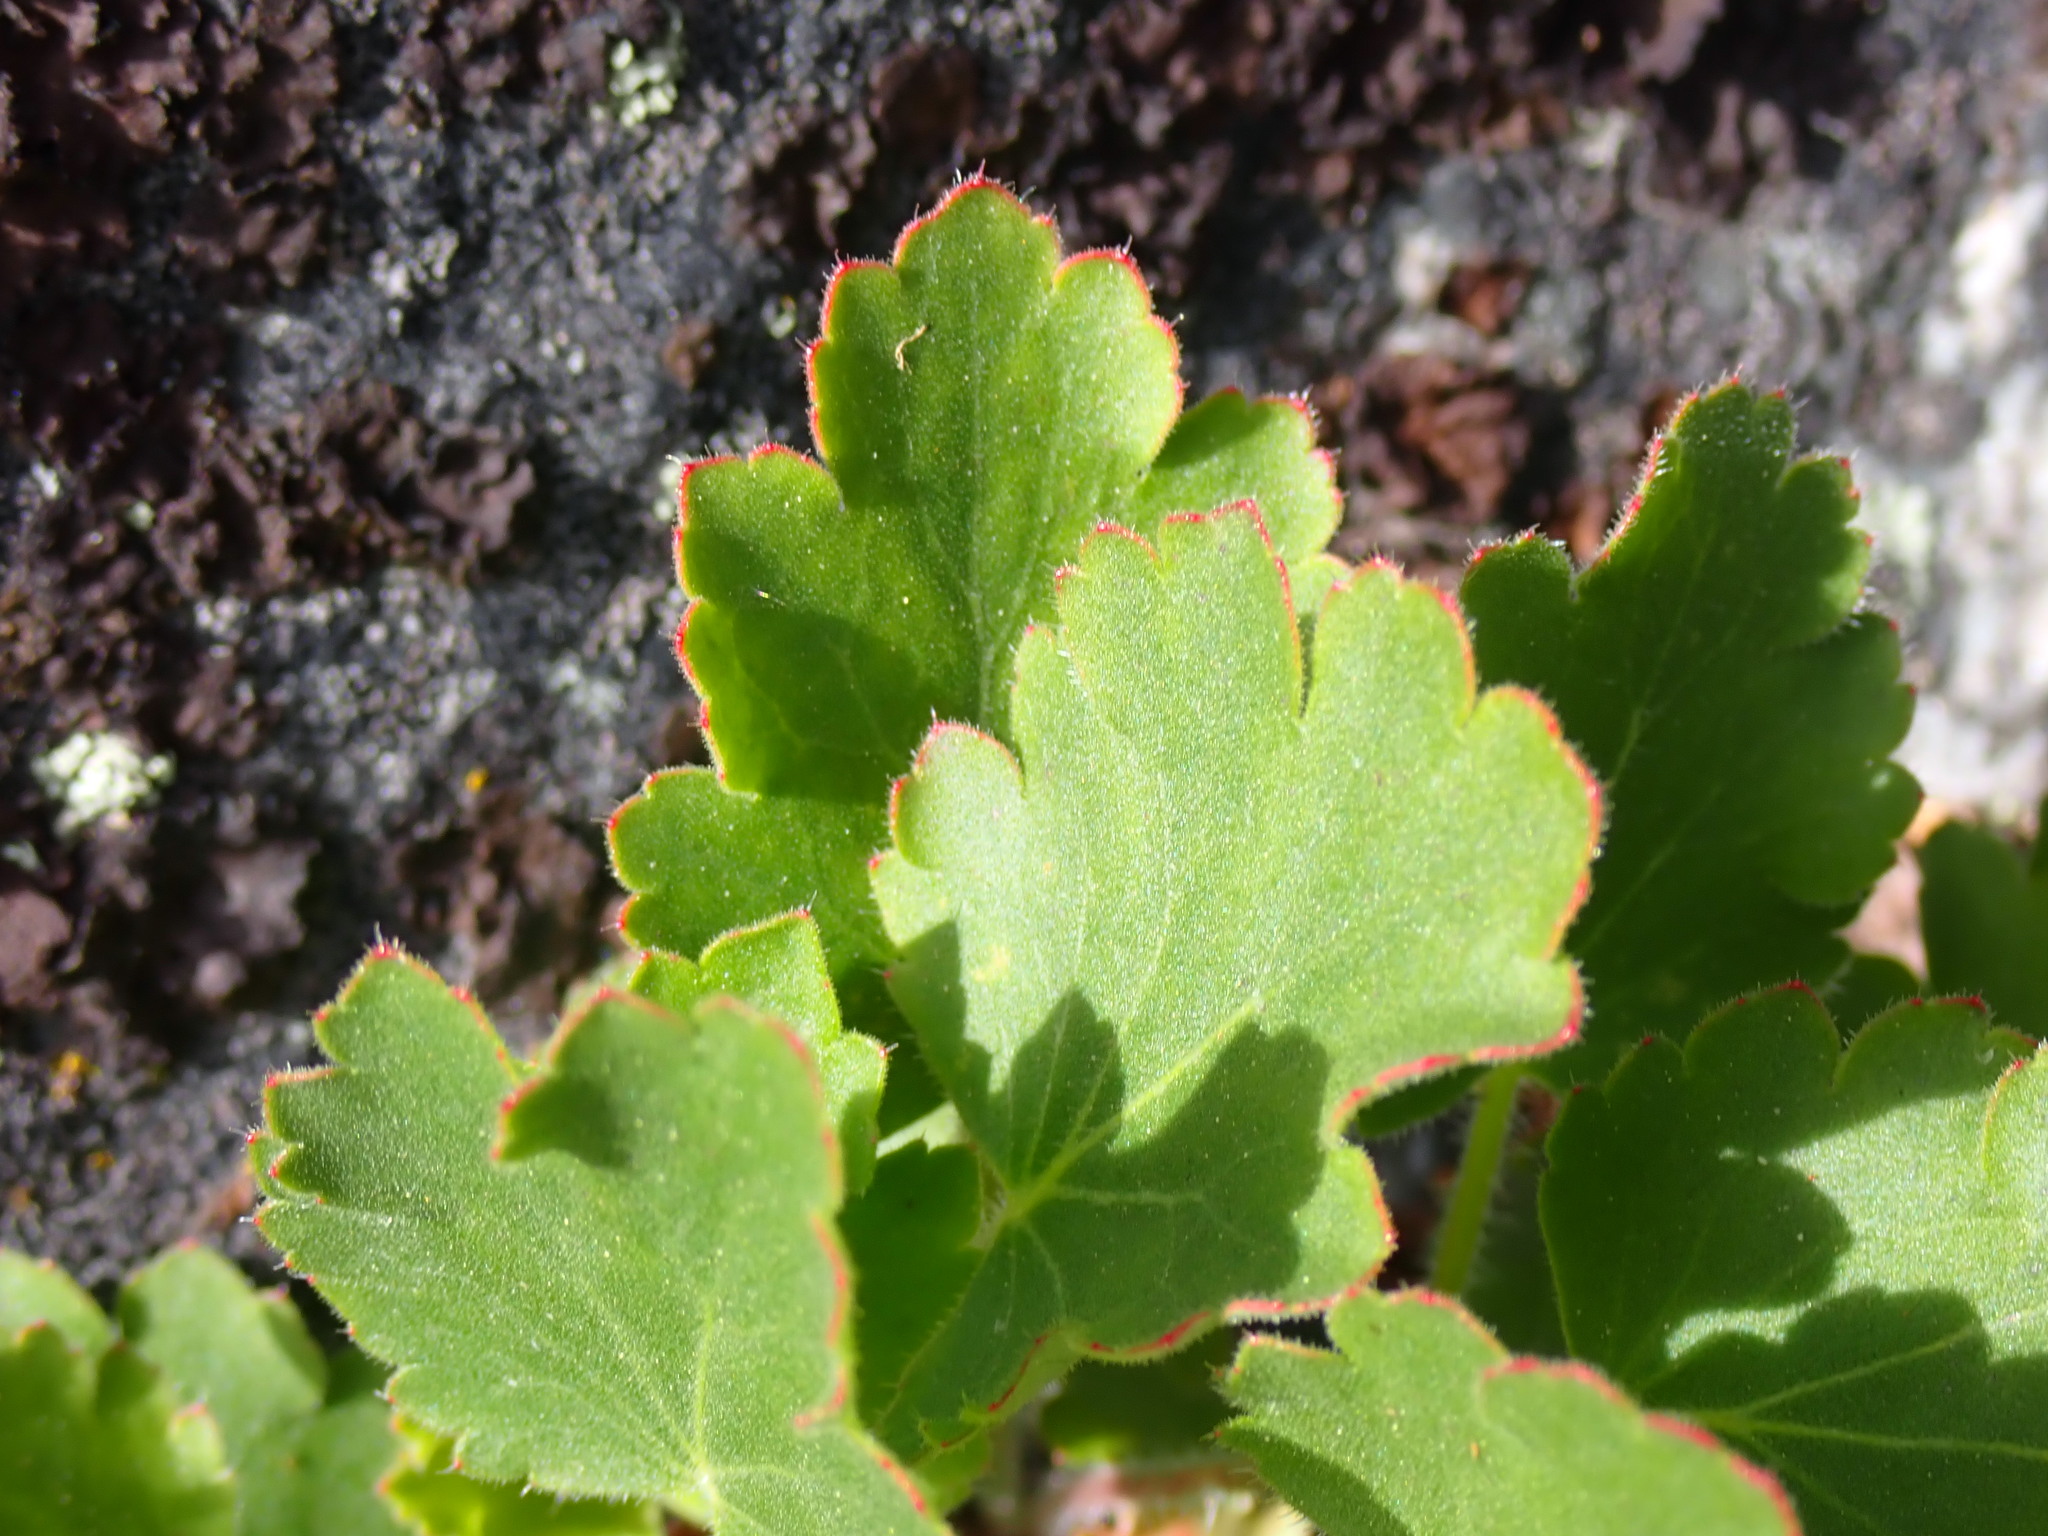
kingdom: Plantae
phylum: Tracheophyta
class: Magnoliopsida
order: Saxifragales
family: Saxifragaceae
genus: Heuchera
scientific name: Heuchera cylindrica
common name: Mat alumroot
